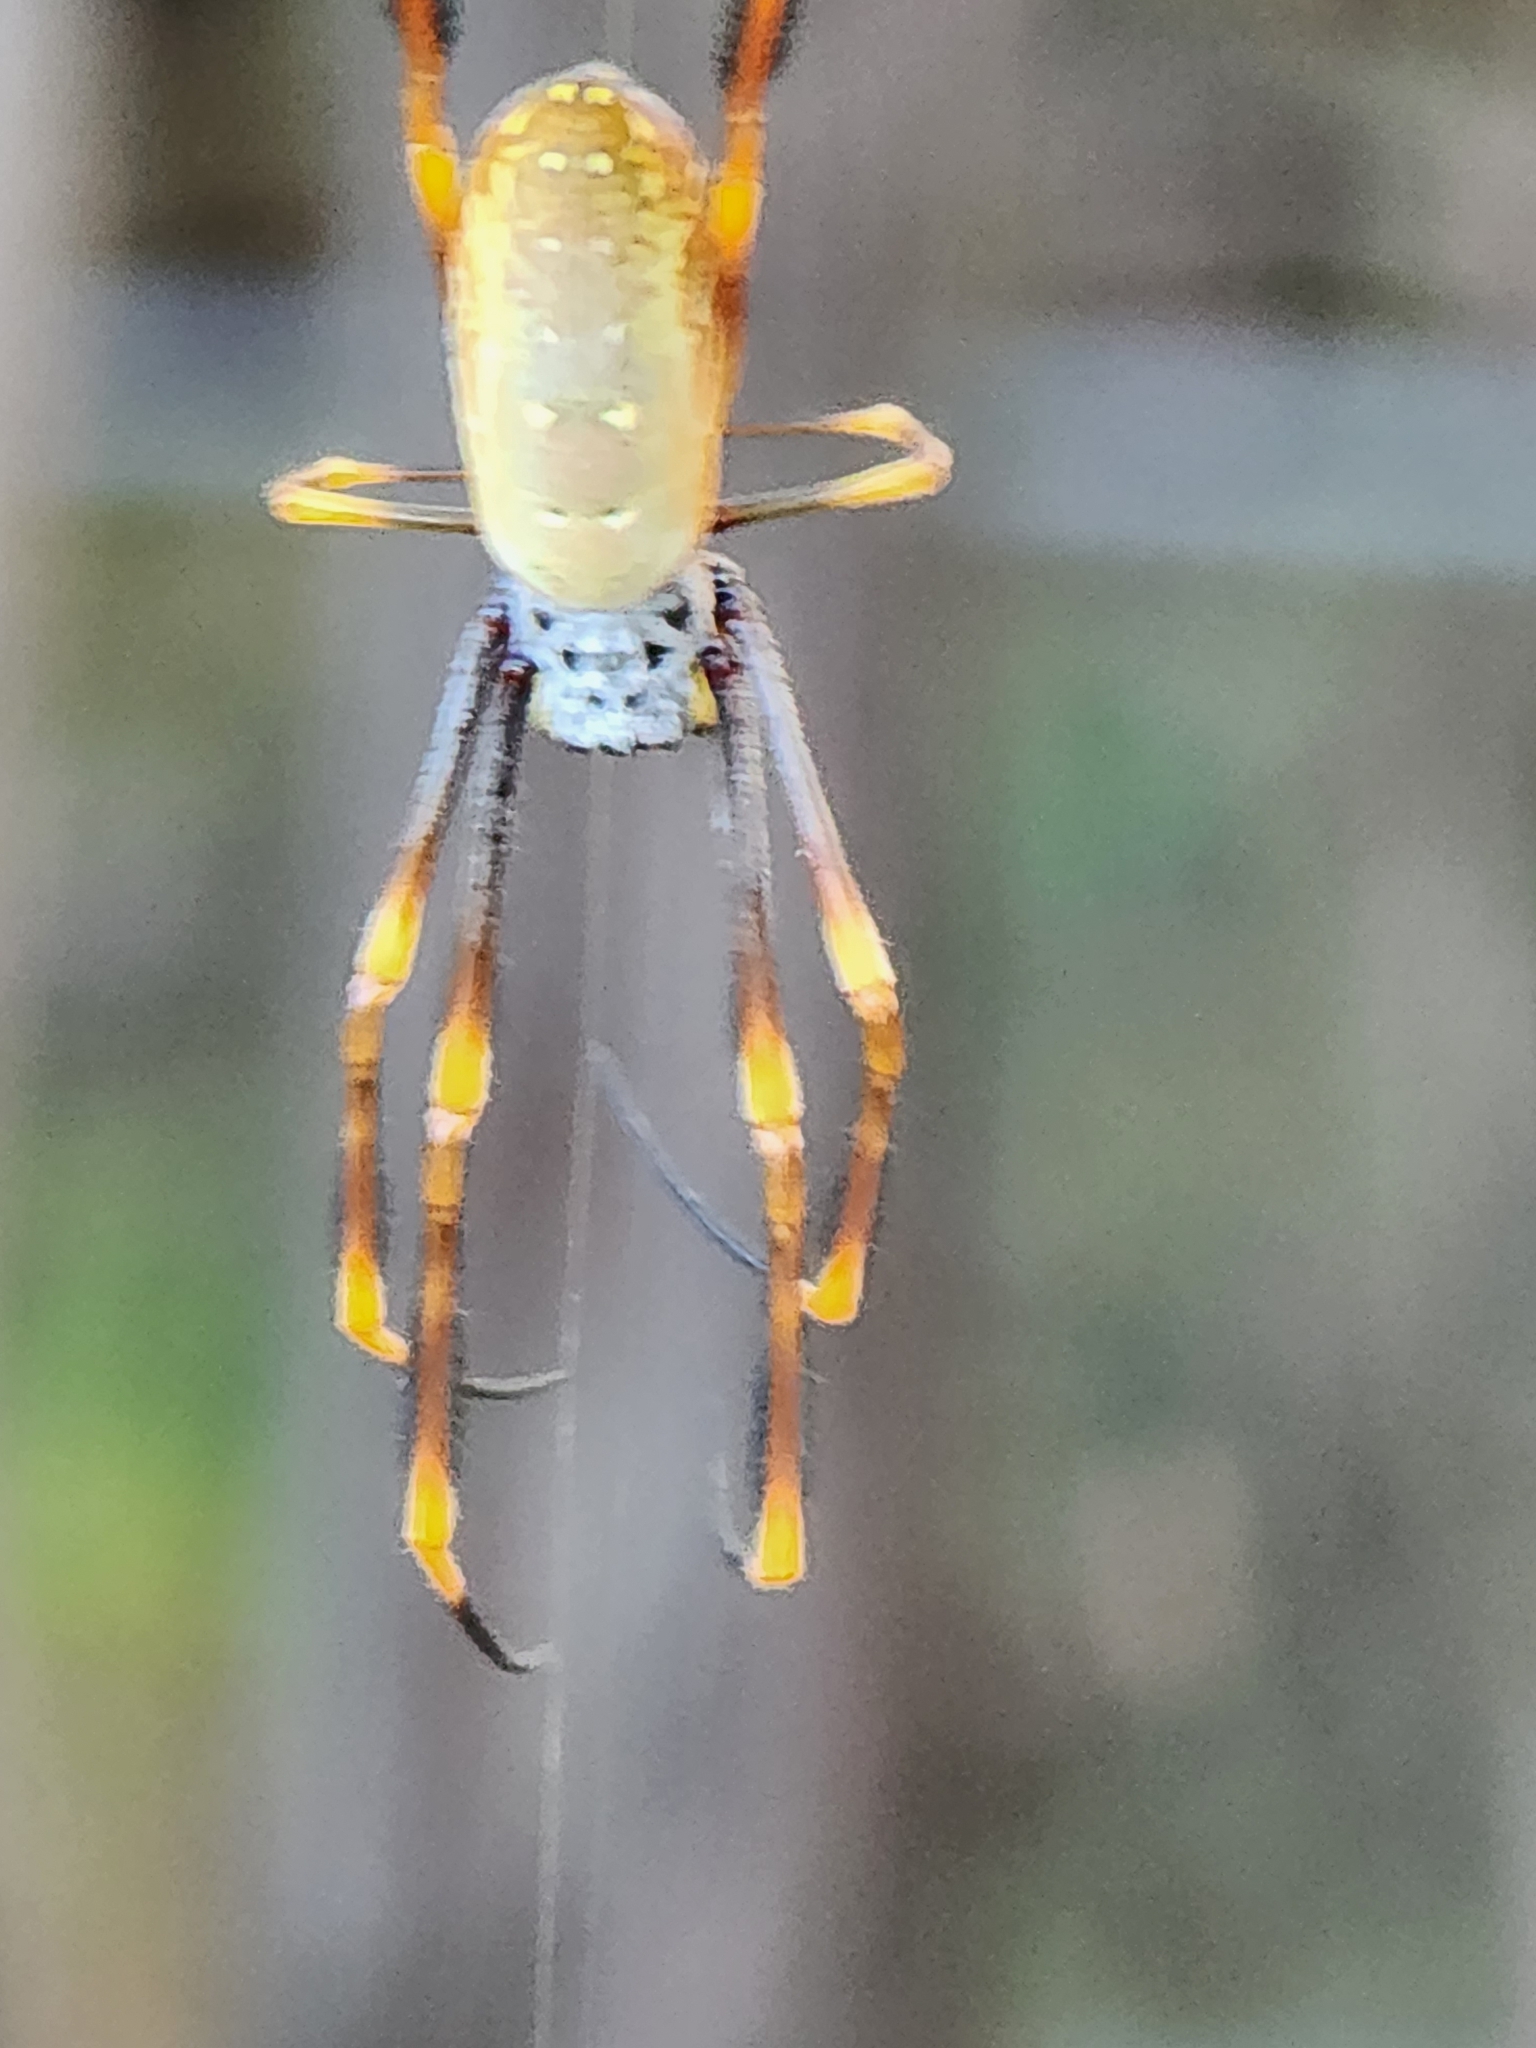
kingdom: Animalia
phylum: Arthropoda
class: Arachnida
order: Araneae
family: Araneidae
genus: Trichonephila
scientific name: Trichonephila plumipes
